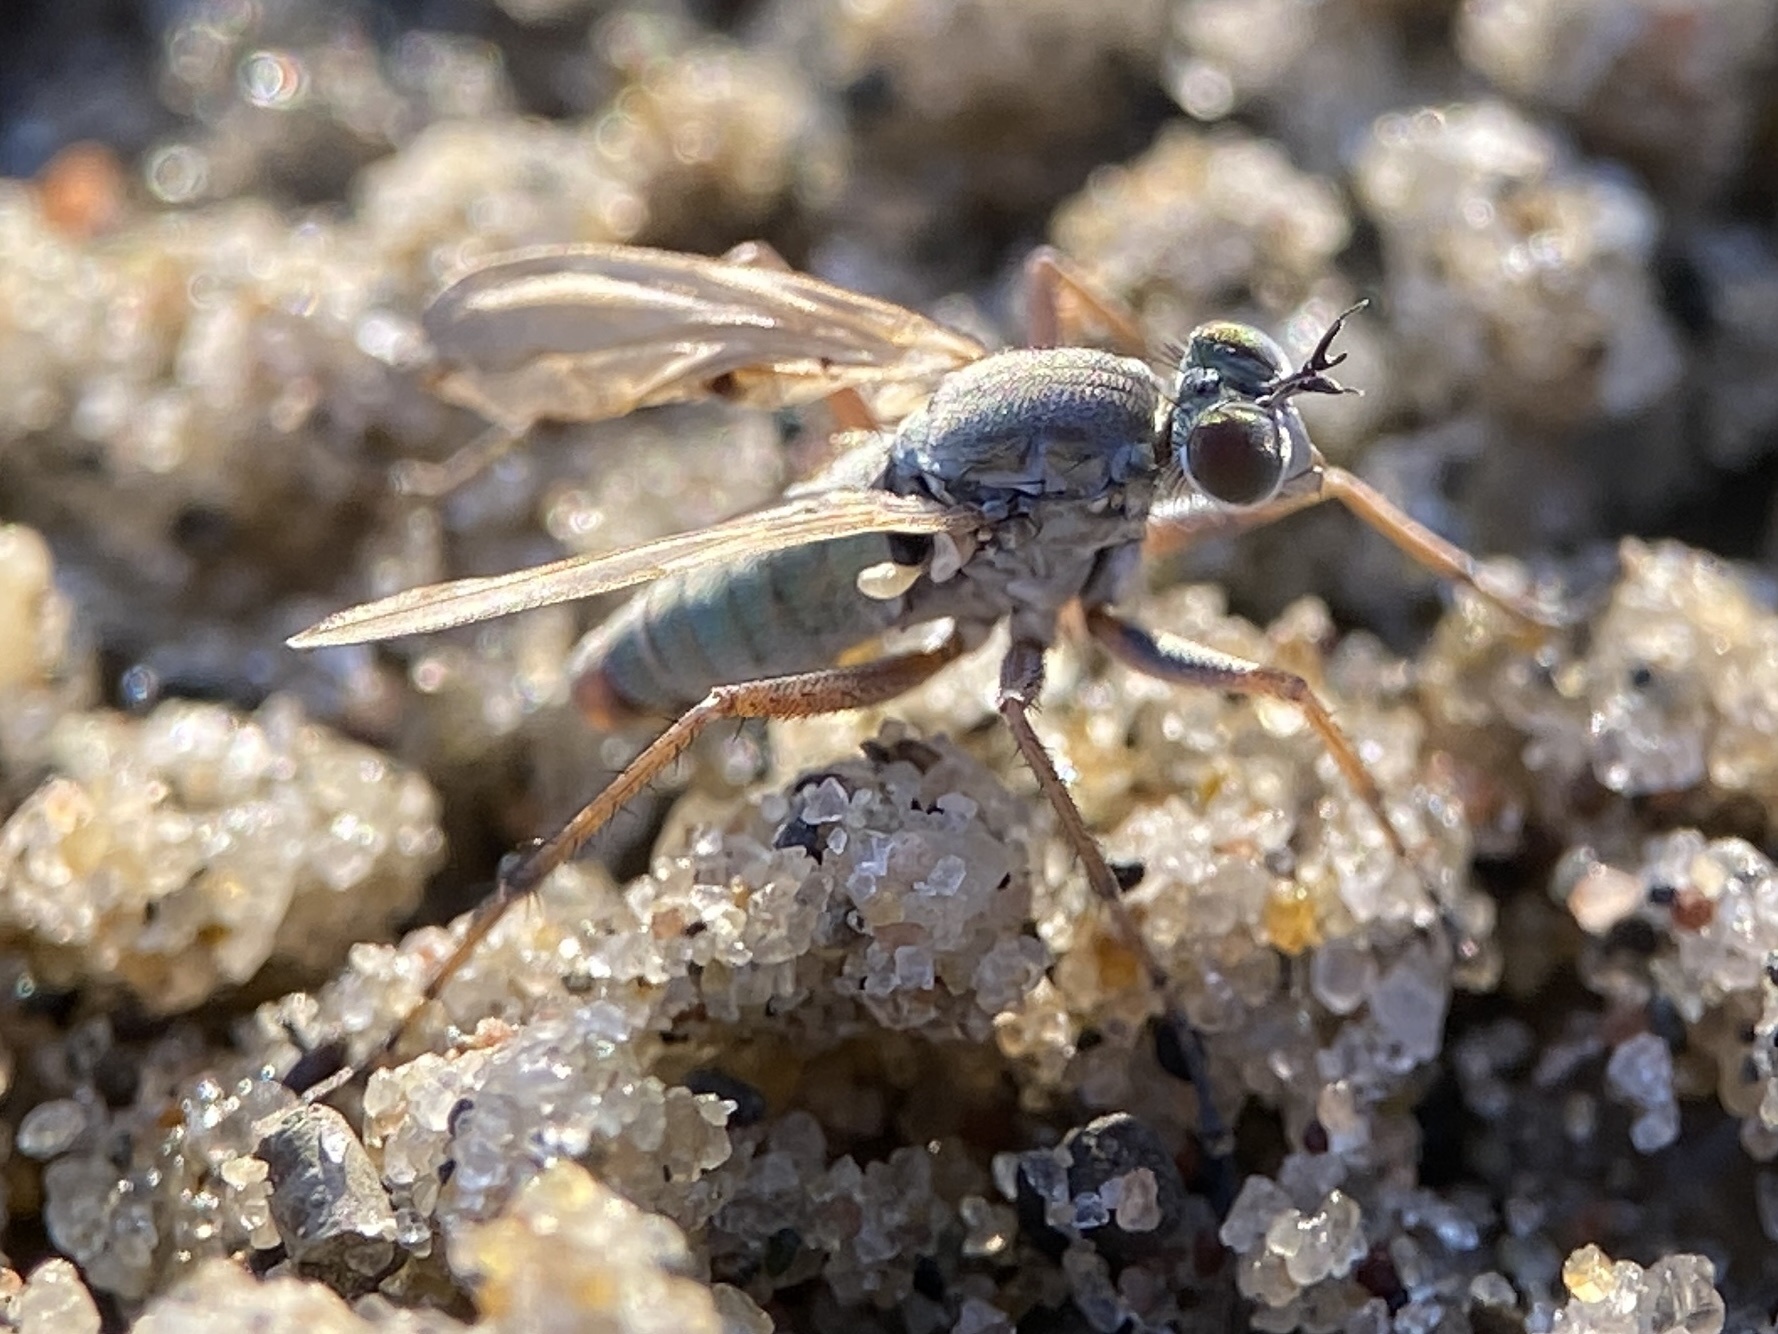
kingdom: Animalia
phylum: Arthropoda
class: Insecta
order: Diptera
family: Dolichopodidae
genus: Hypocharassus
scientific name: Hypocharassus pruinosus
